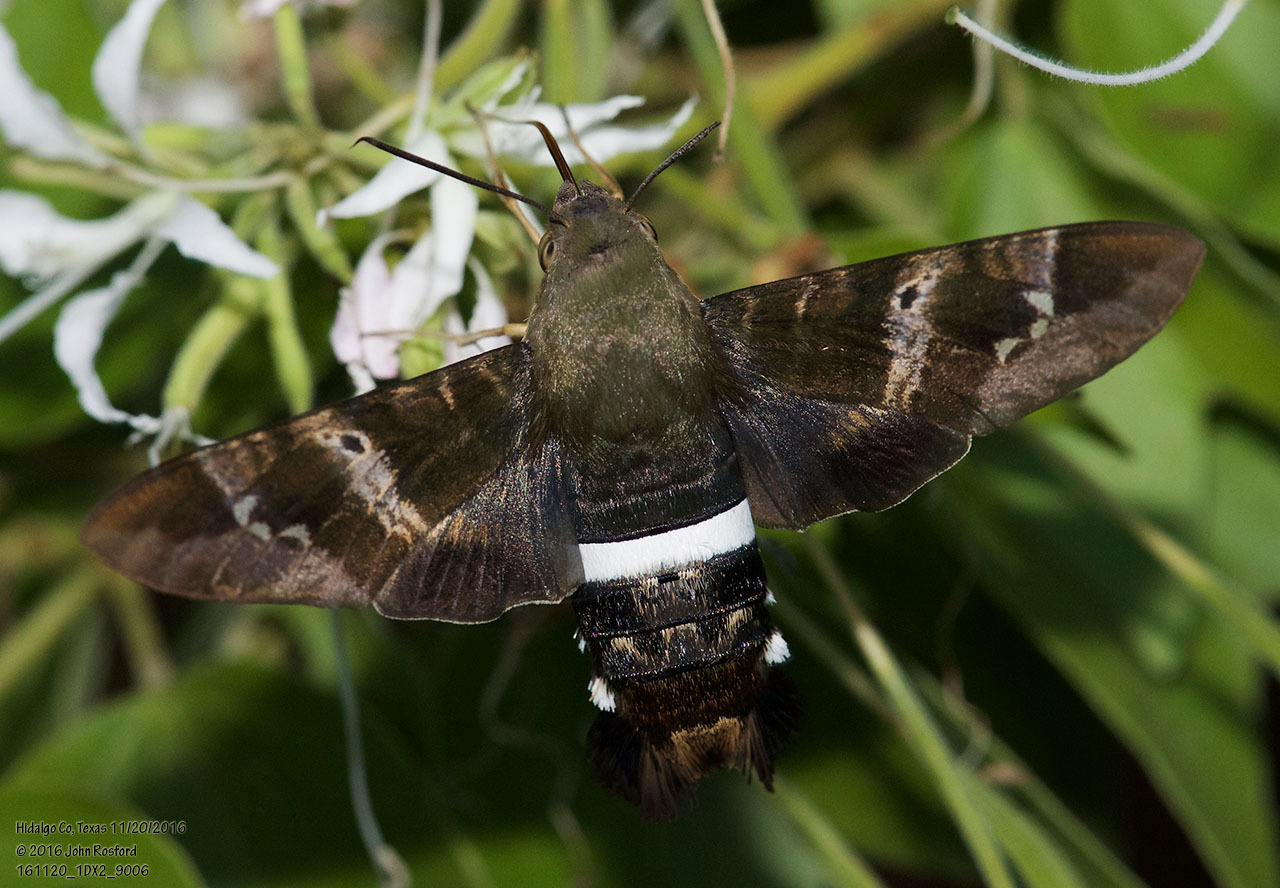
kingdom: Animalia
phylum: Arthropoda
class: Insecta
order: Lepidoptera
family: Sphingidae
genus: Aellopos
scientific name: Aellopos clavipes
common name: Clavipes sphinx
